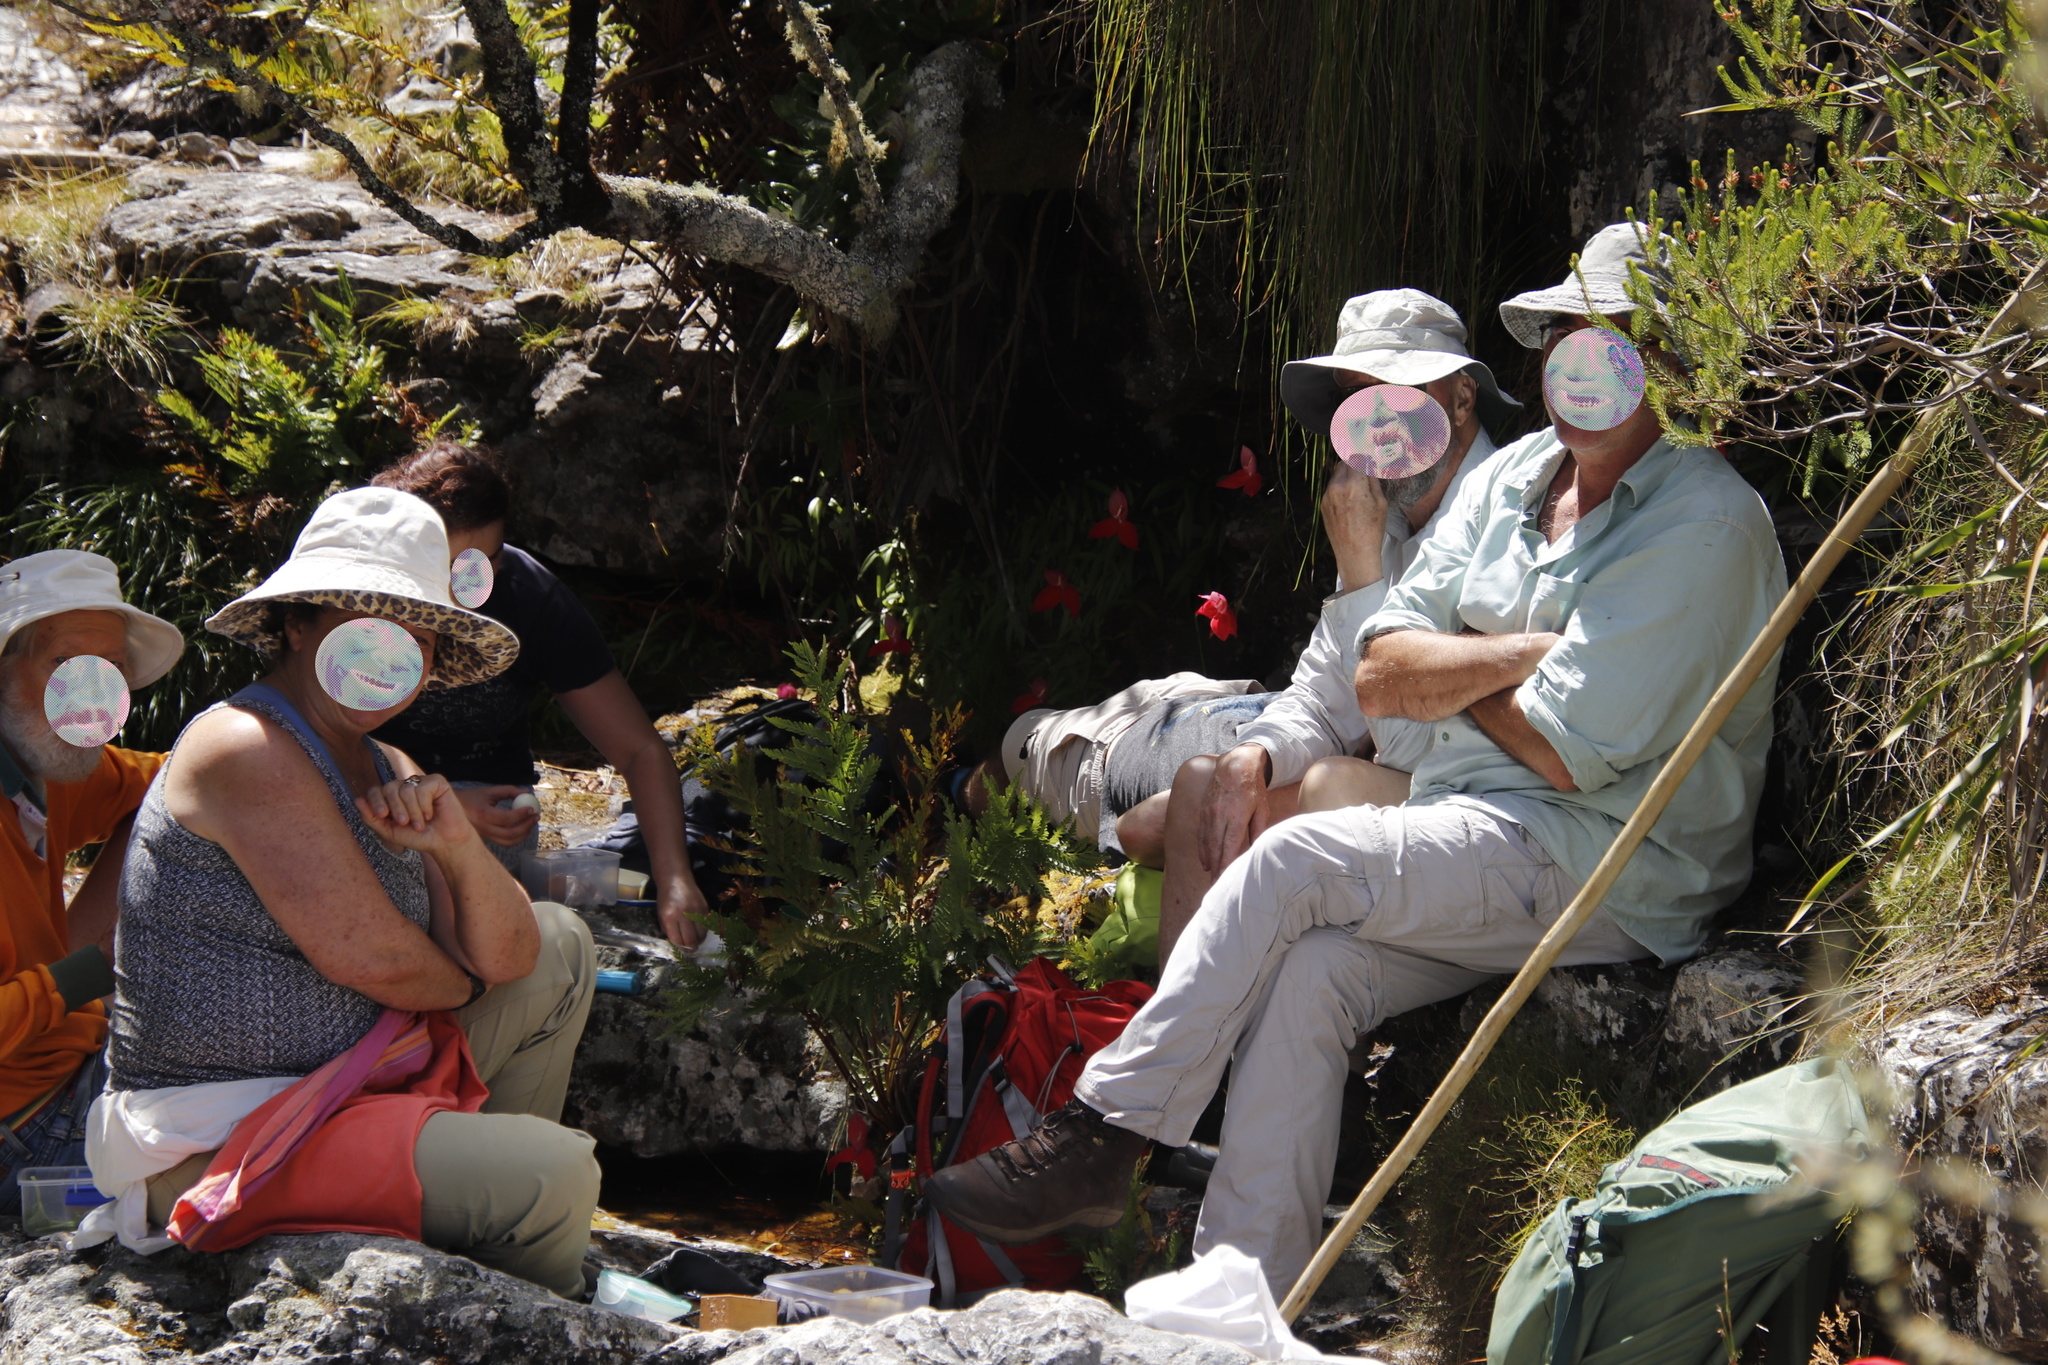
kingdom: Plantae
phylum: Tracheophyta
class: Liliopsida
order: Asparagales
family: Orchidaceae
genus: Disa
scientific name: Disa uniflora
